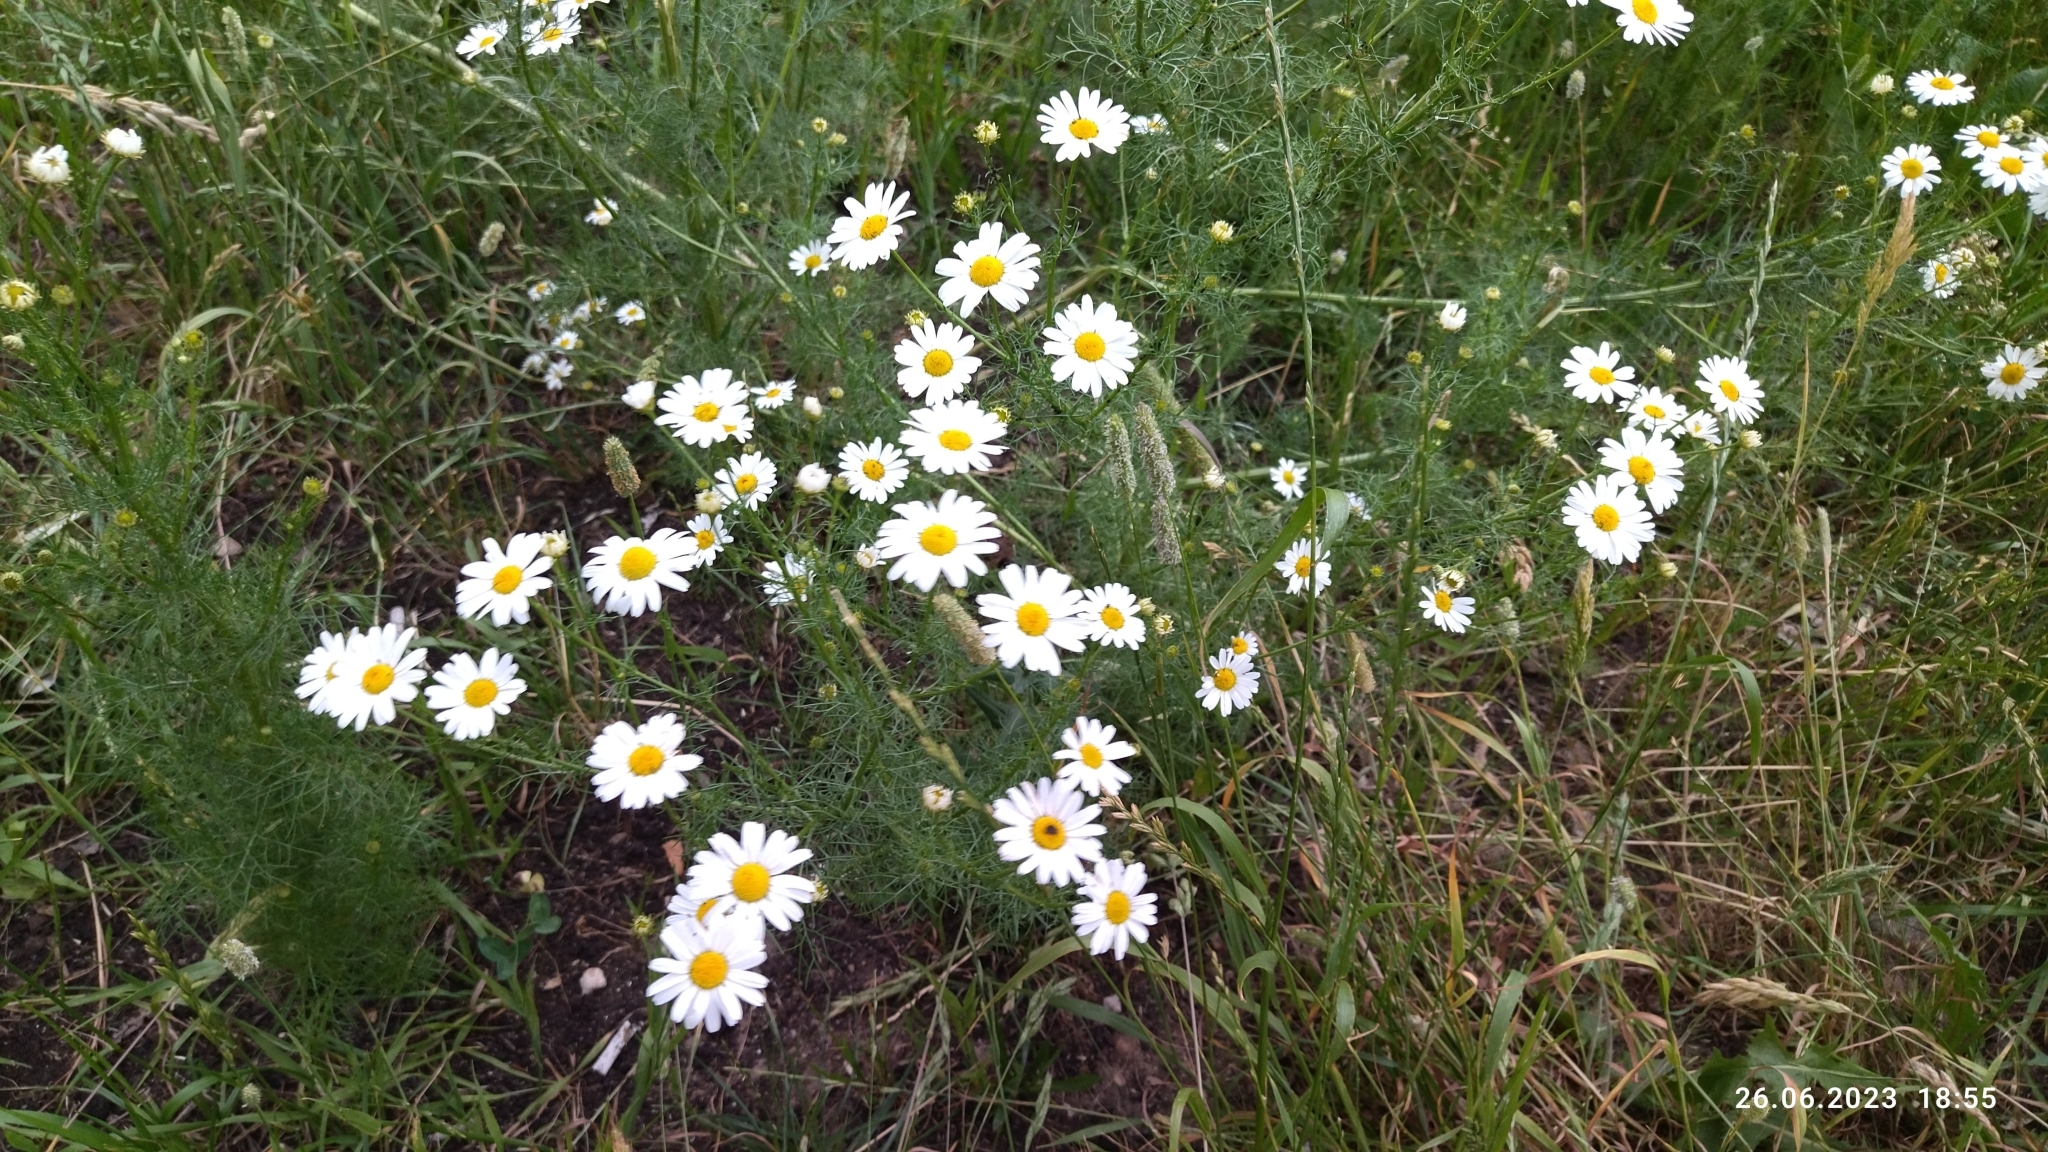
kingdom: Plantae
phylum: Tracheophyta
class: Magnoliopsida
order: Asterales
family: Asteraceae
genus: Tripleurospermum
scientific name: Tripleurospermum inodorum
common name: Scentless mayweed
